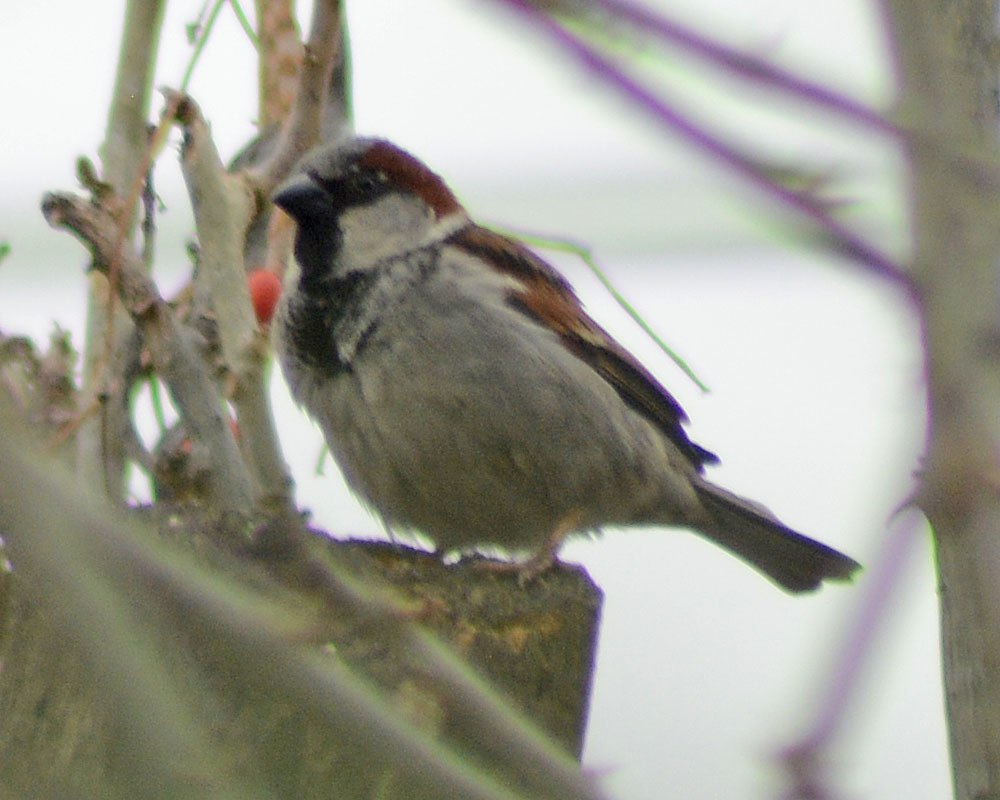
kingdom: Animalia
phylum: Chordata
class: Aves
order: Passeriformes
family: Passeridae
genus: Passer
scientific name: Passer domesticus
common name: House sparrow
